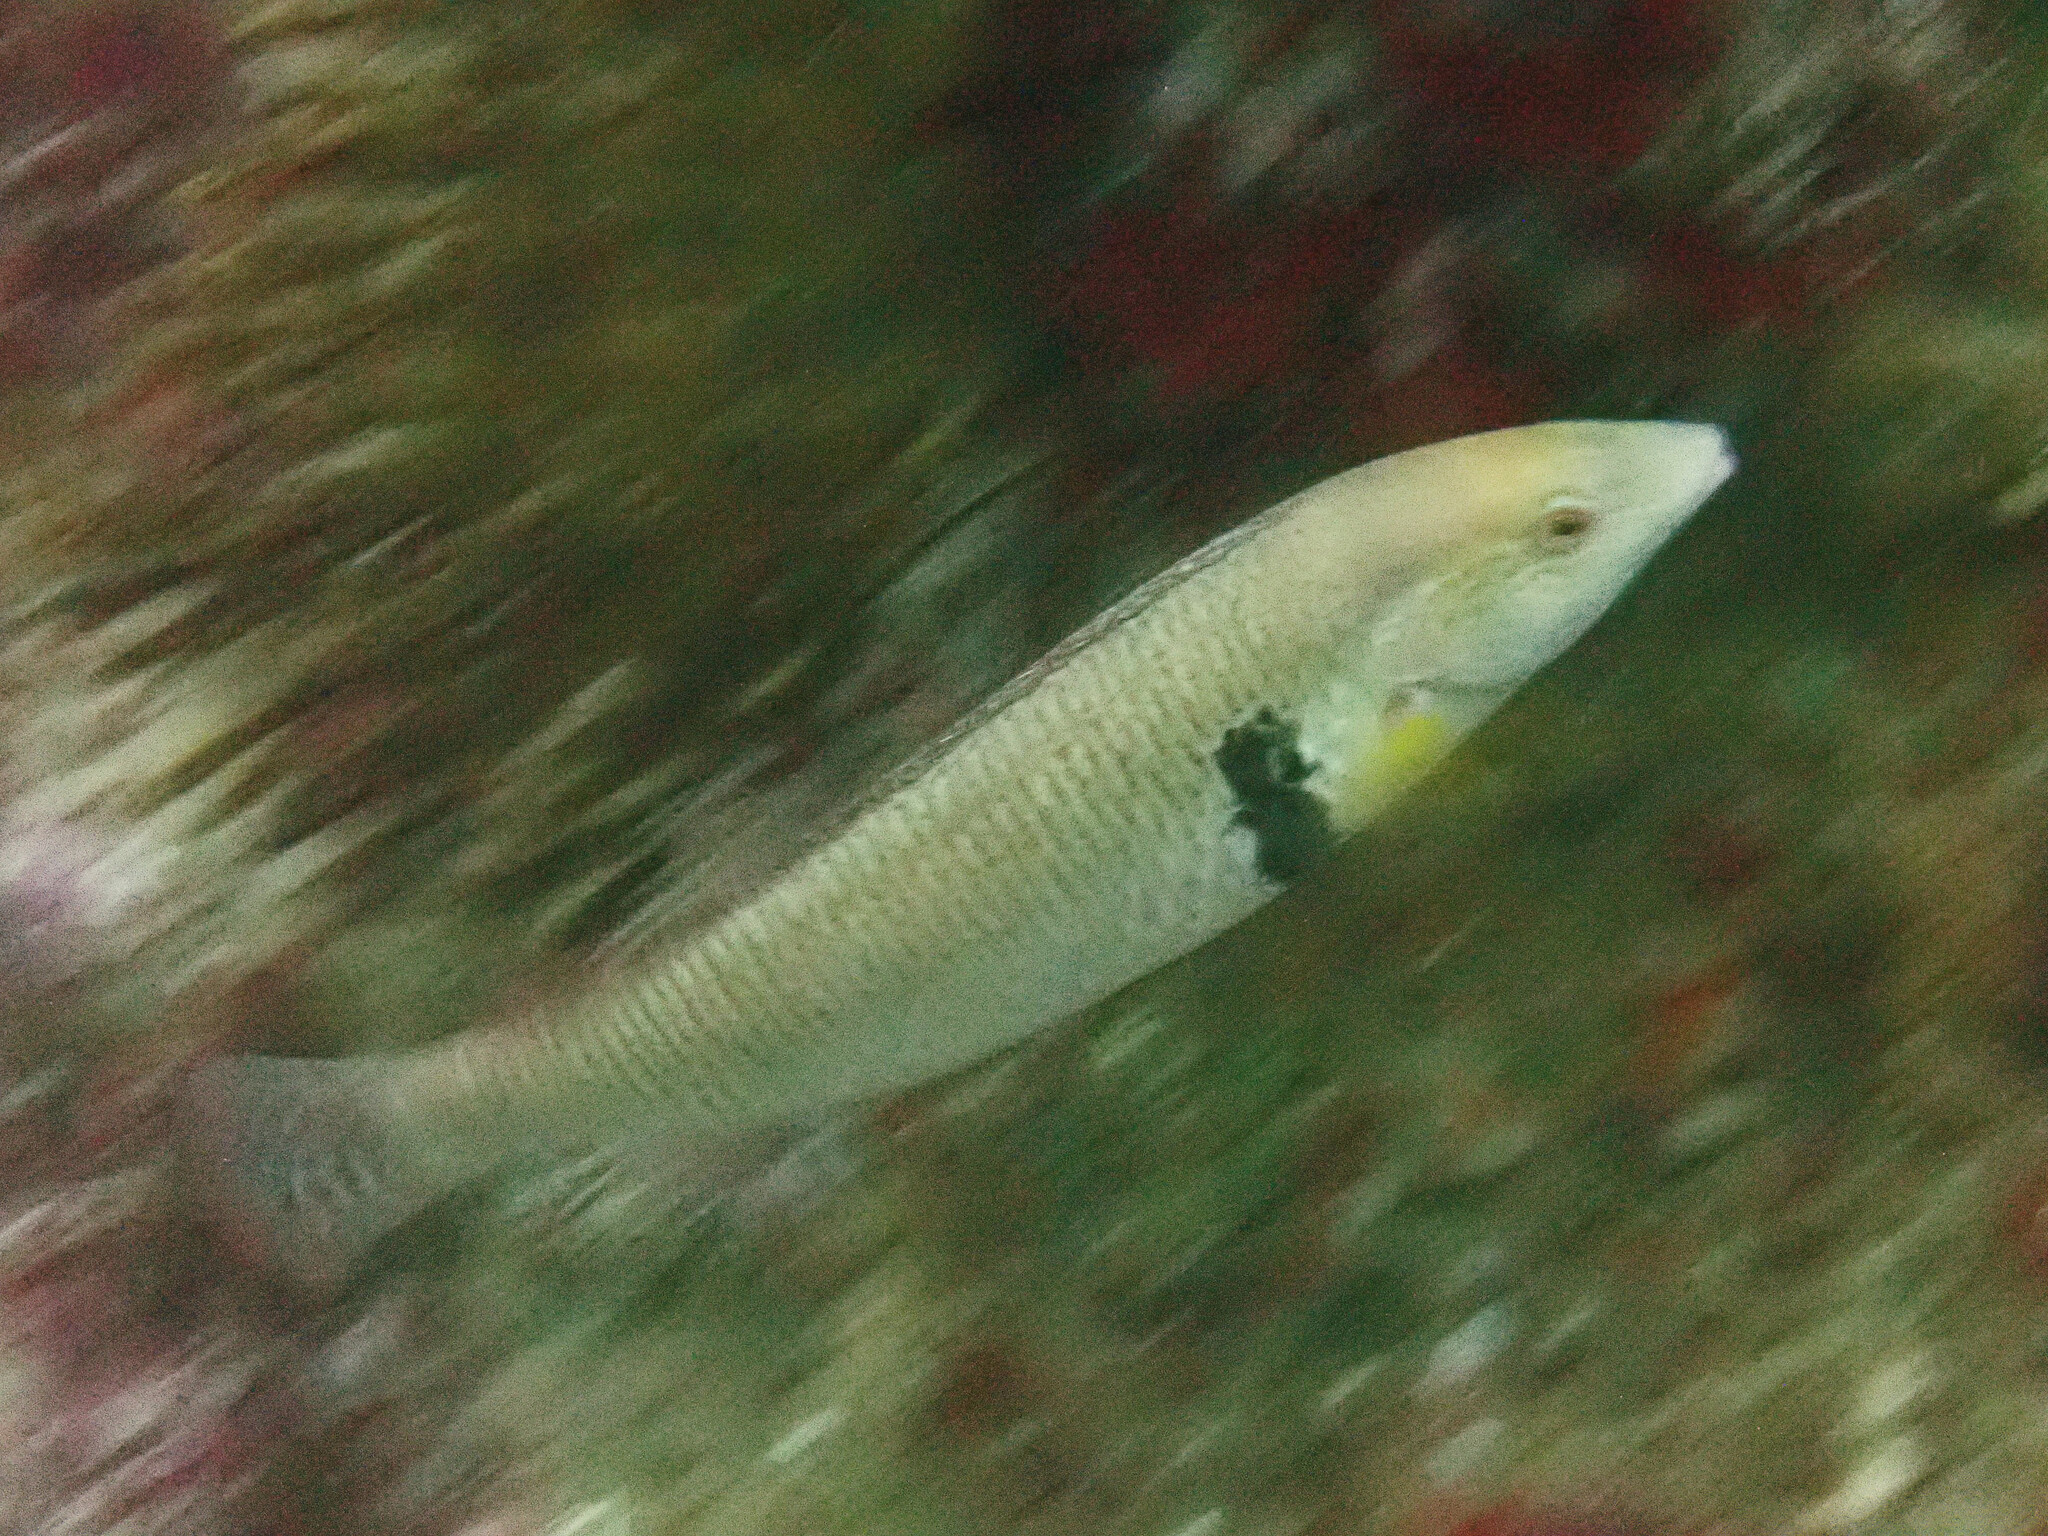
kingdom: Animalia
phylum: Chordata
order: Perciformes
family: Labridae
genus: Halichoeres
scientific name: Halichoeres semicinctus
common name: Rock wrasse
